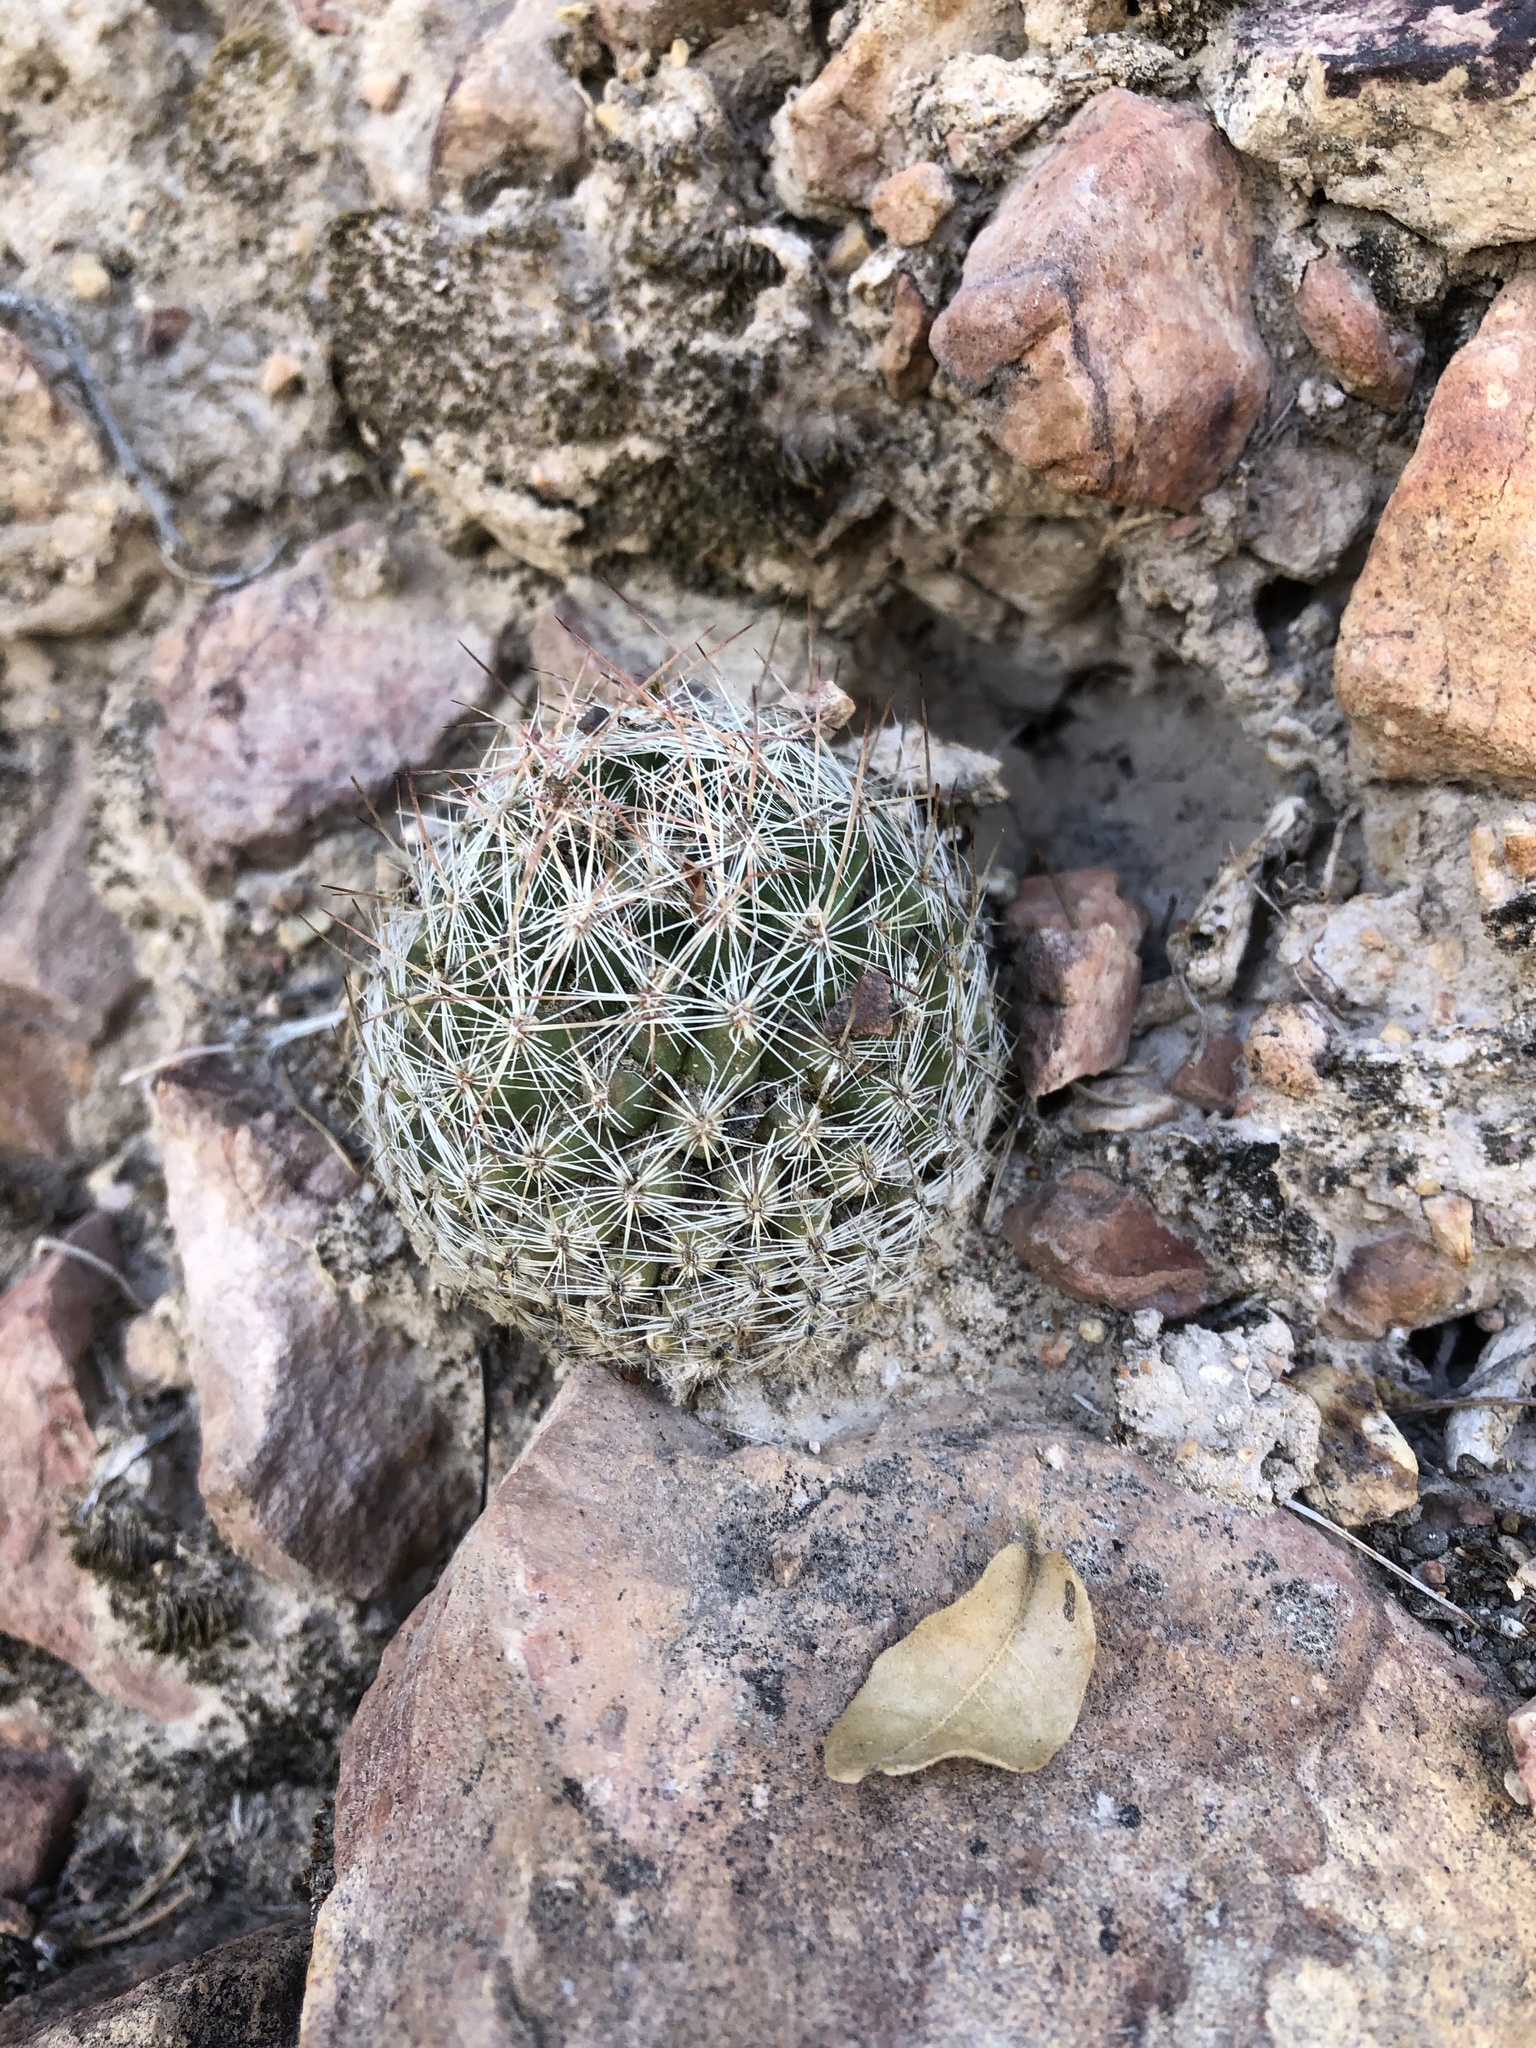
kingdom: Plantae
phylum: Tracheophyta
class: Magnoliopsida
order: Caryophyllales
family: Cactaceae
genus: Pelecyphora
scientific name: Pelecyphora tuberculosa
